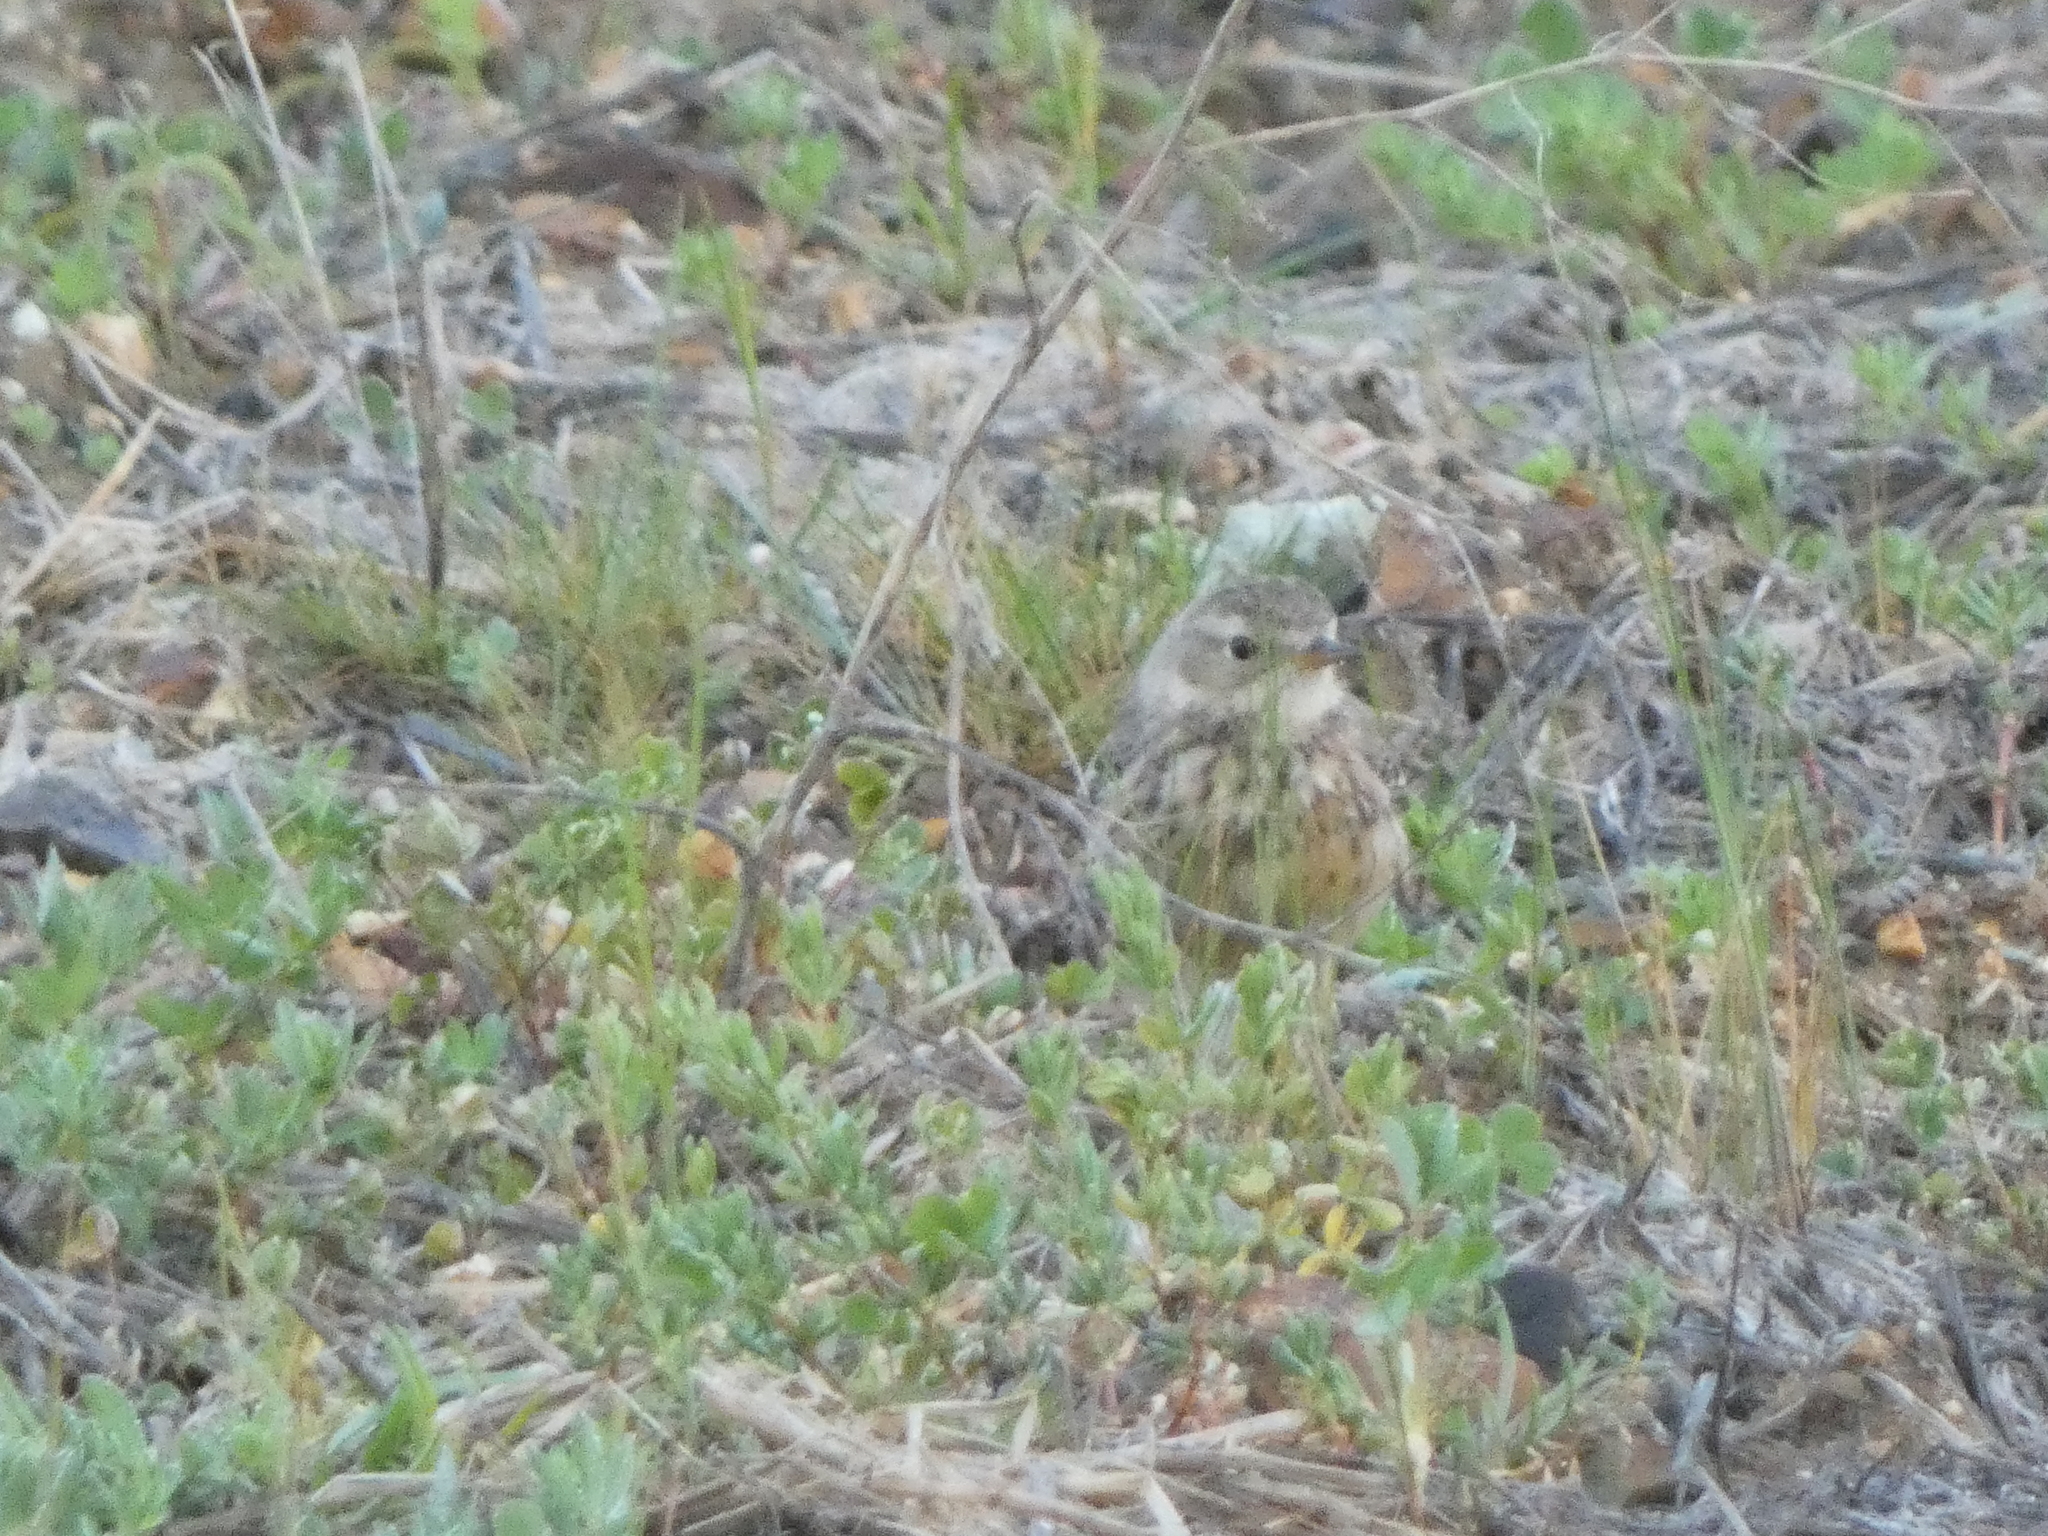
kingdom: Animalia
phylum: Chordata
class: Aves
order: Passeriformes
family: Motacillidae
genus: Anthus
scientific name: Anthus rubescens
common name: Buff-bellied pipit
